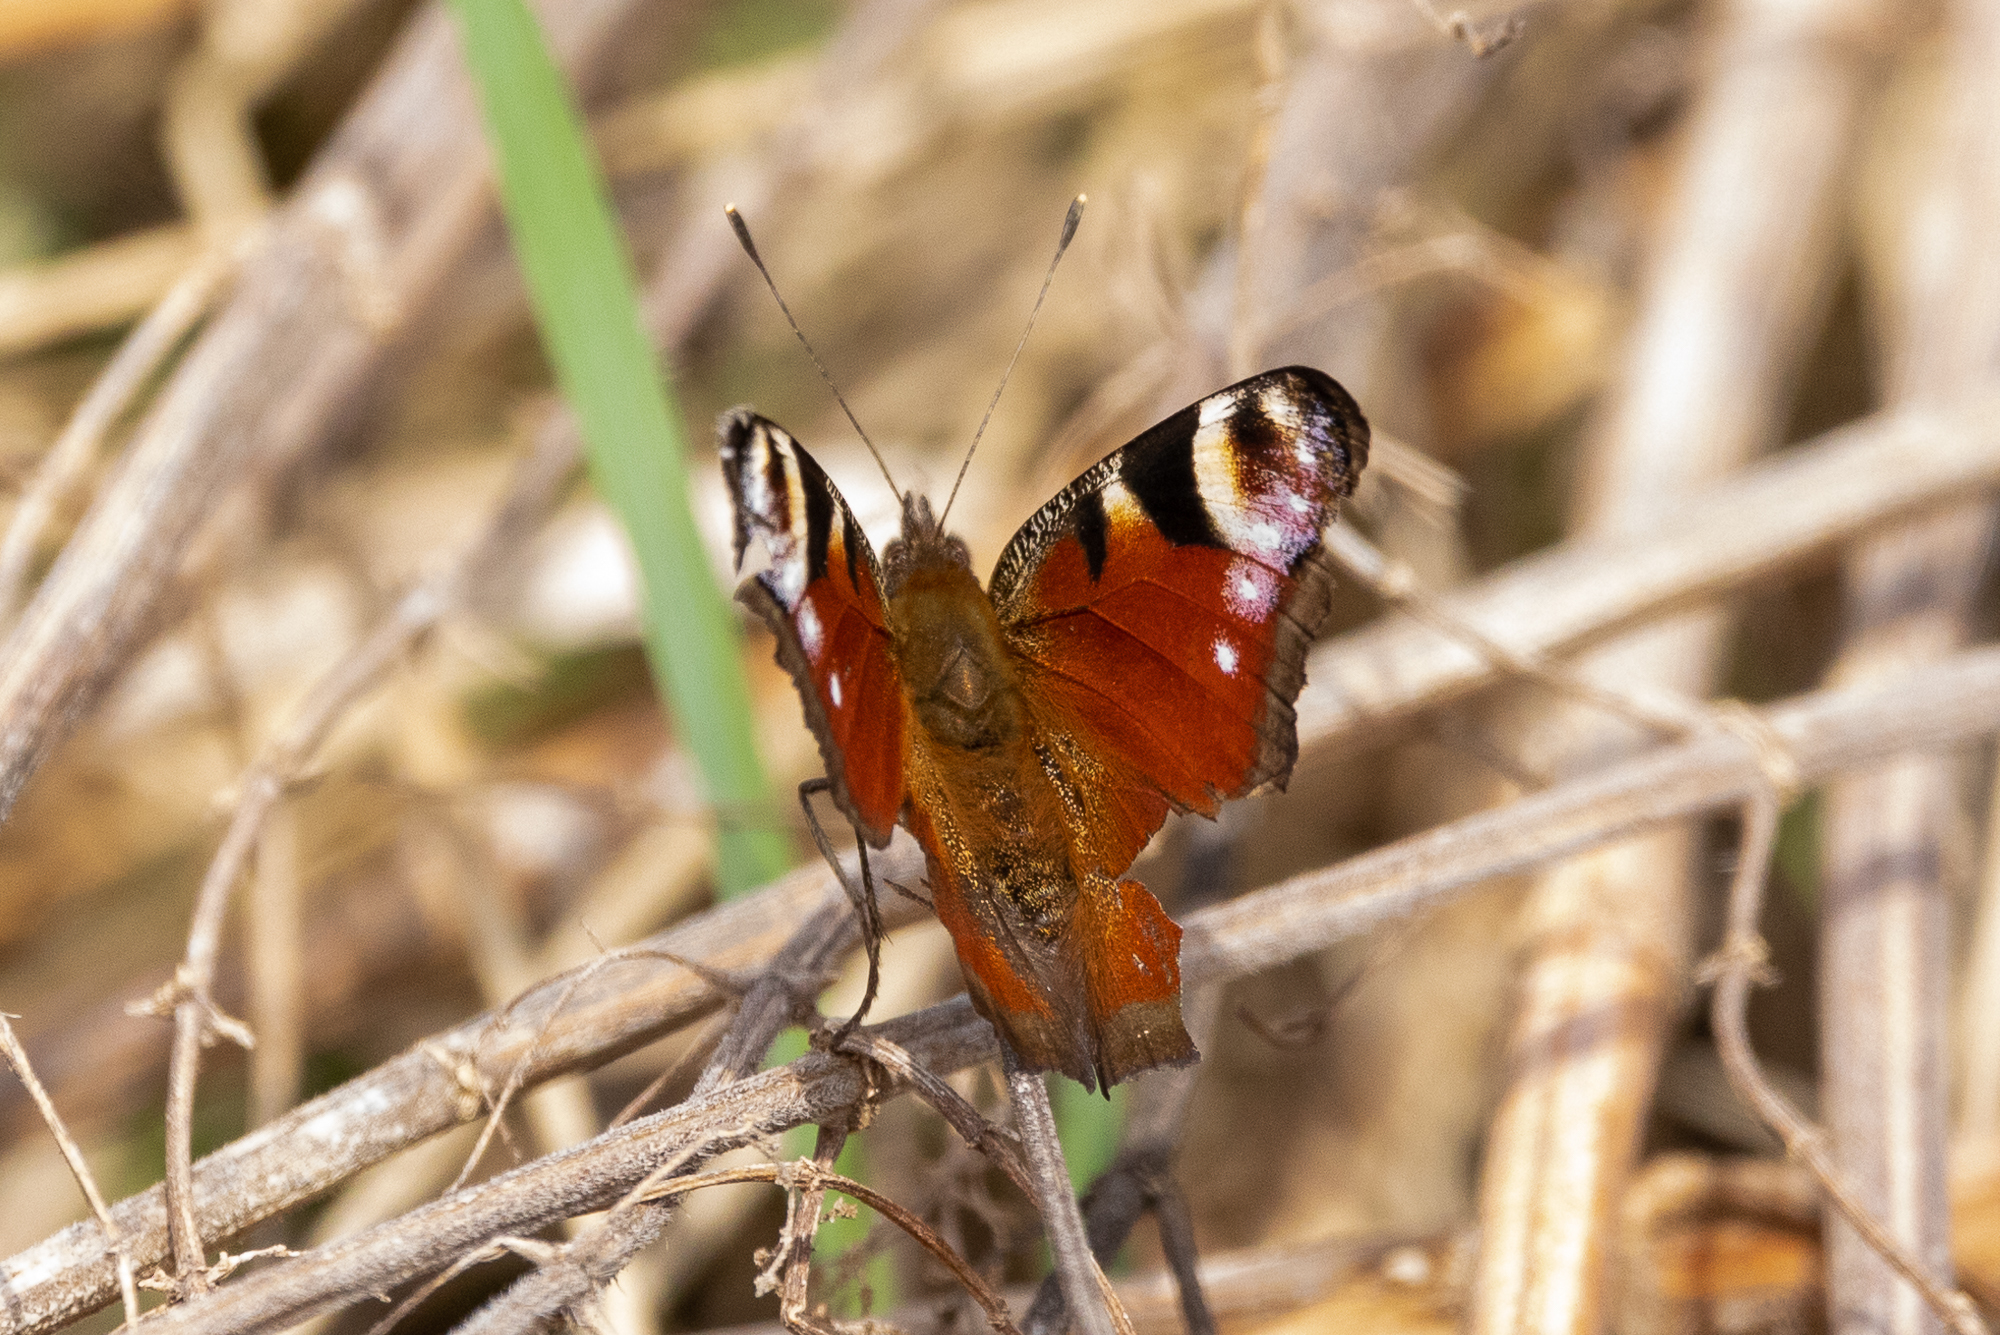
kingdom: Animalia
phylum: Arthropoda
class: Insecta
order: Lepidoptera
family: Nymphalidae
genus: Aglais
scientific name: Aglais io
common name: Peacock
